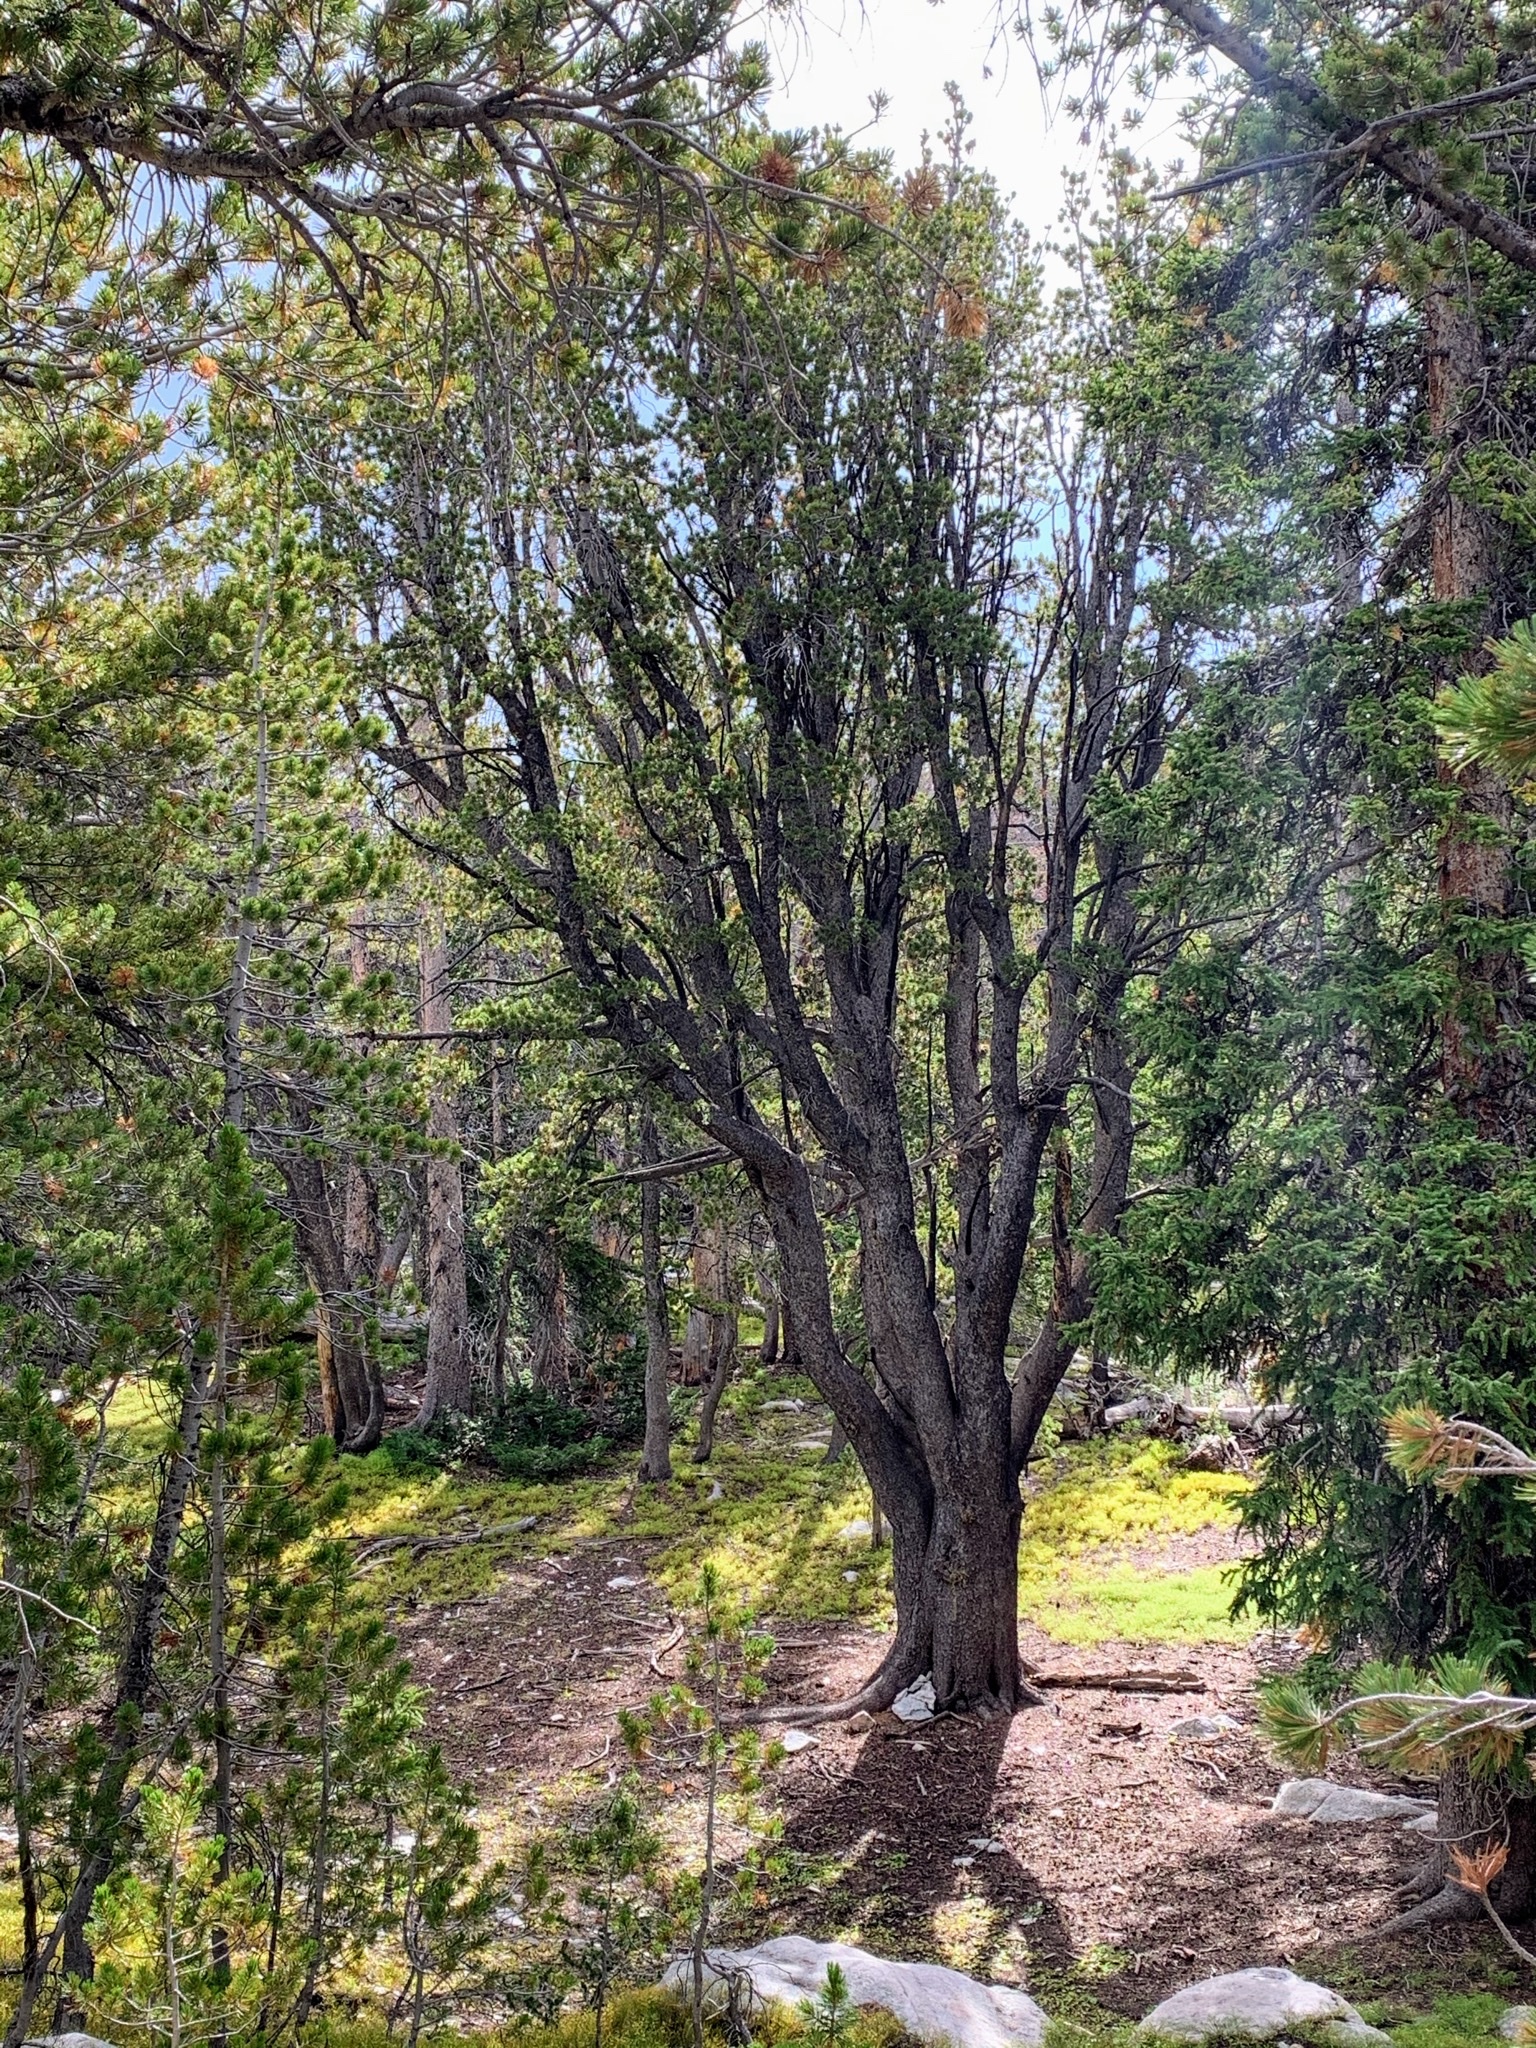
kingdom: Plantae
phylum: Tracheophyta
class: Pinopsida
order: Pinales
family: Pinaceae
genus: Pinus
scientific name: Pinus albicaulis
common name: Whitebark pine
